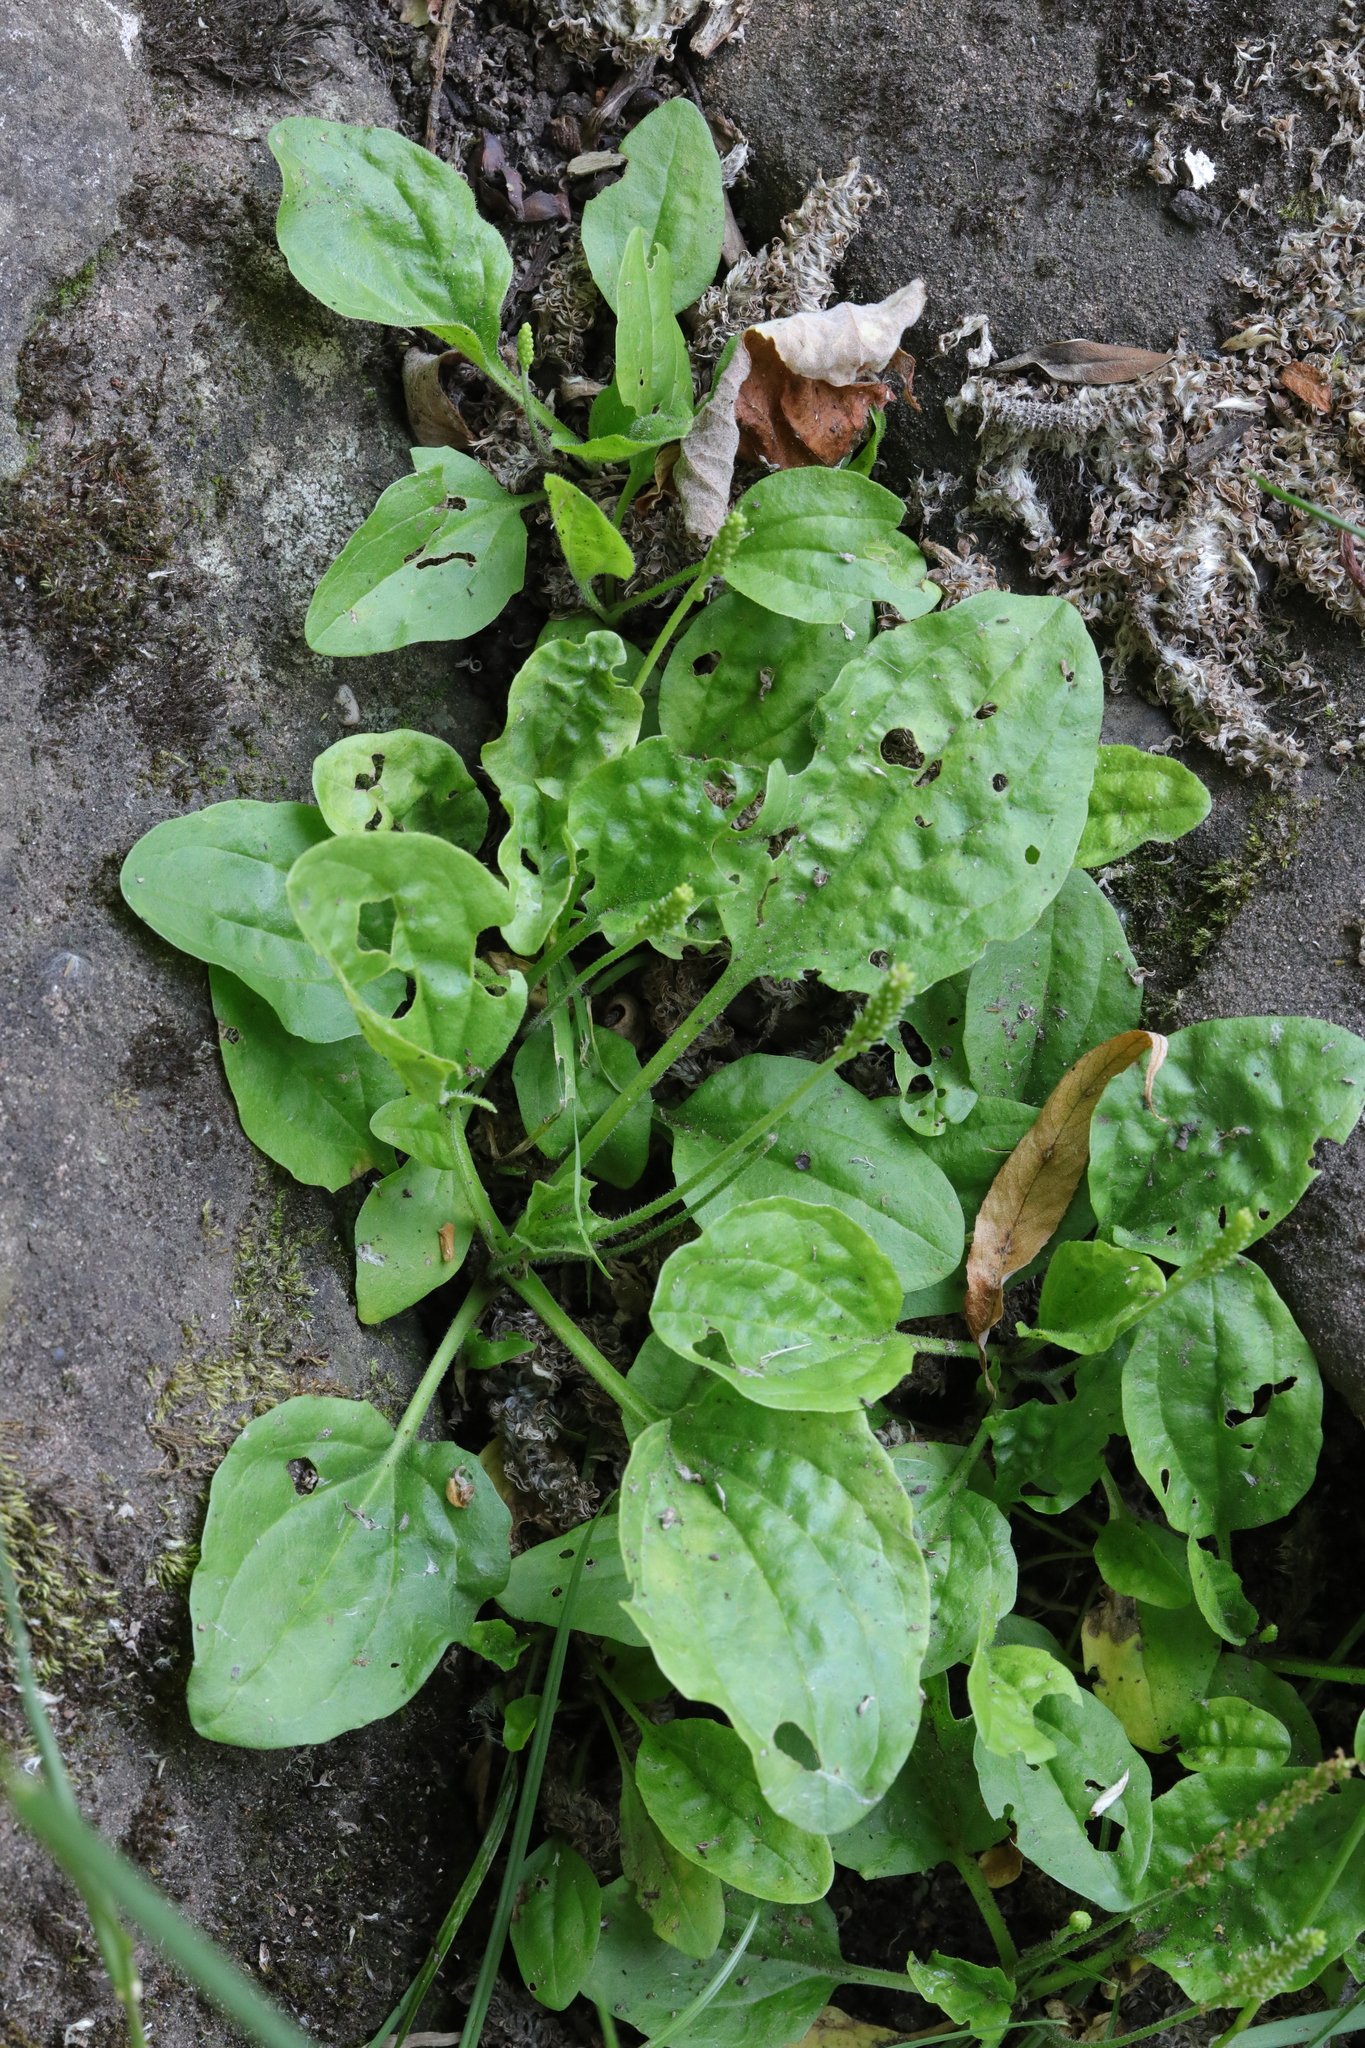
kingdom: Plantae
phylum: Tracheophyta
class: Magnoliopsida
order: Lamiales
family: Plantaginaceae
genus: Plantago
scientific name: Plantago major
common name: Common plantain
